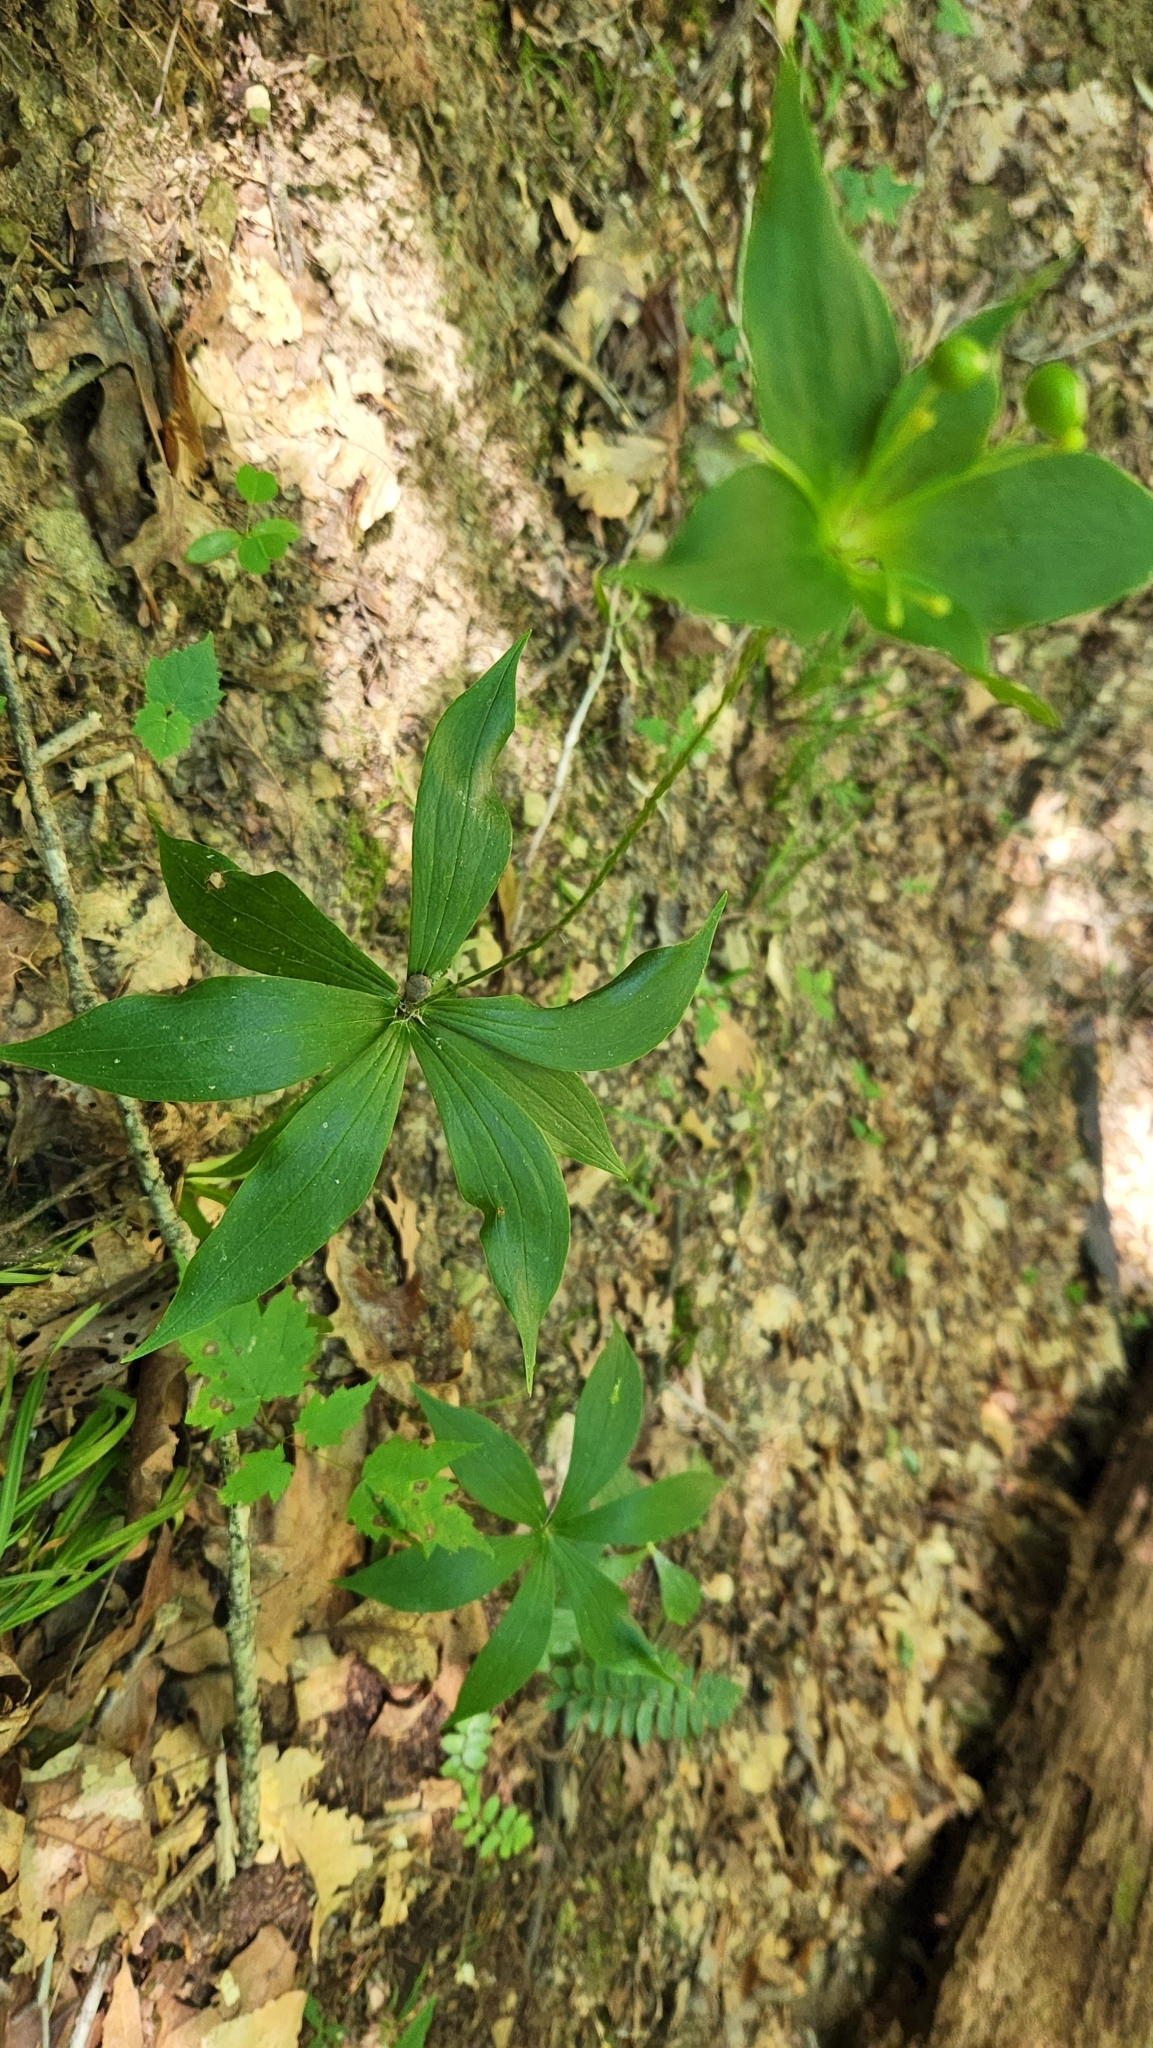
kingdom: Plantae
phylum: Tracheophyta
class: Liliopsida
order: Liliales
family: Liliaceae
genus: Medeola
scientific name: Medeola virginiana
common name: Indian cucumber-root
